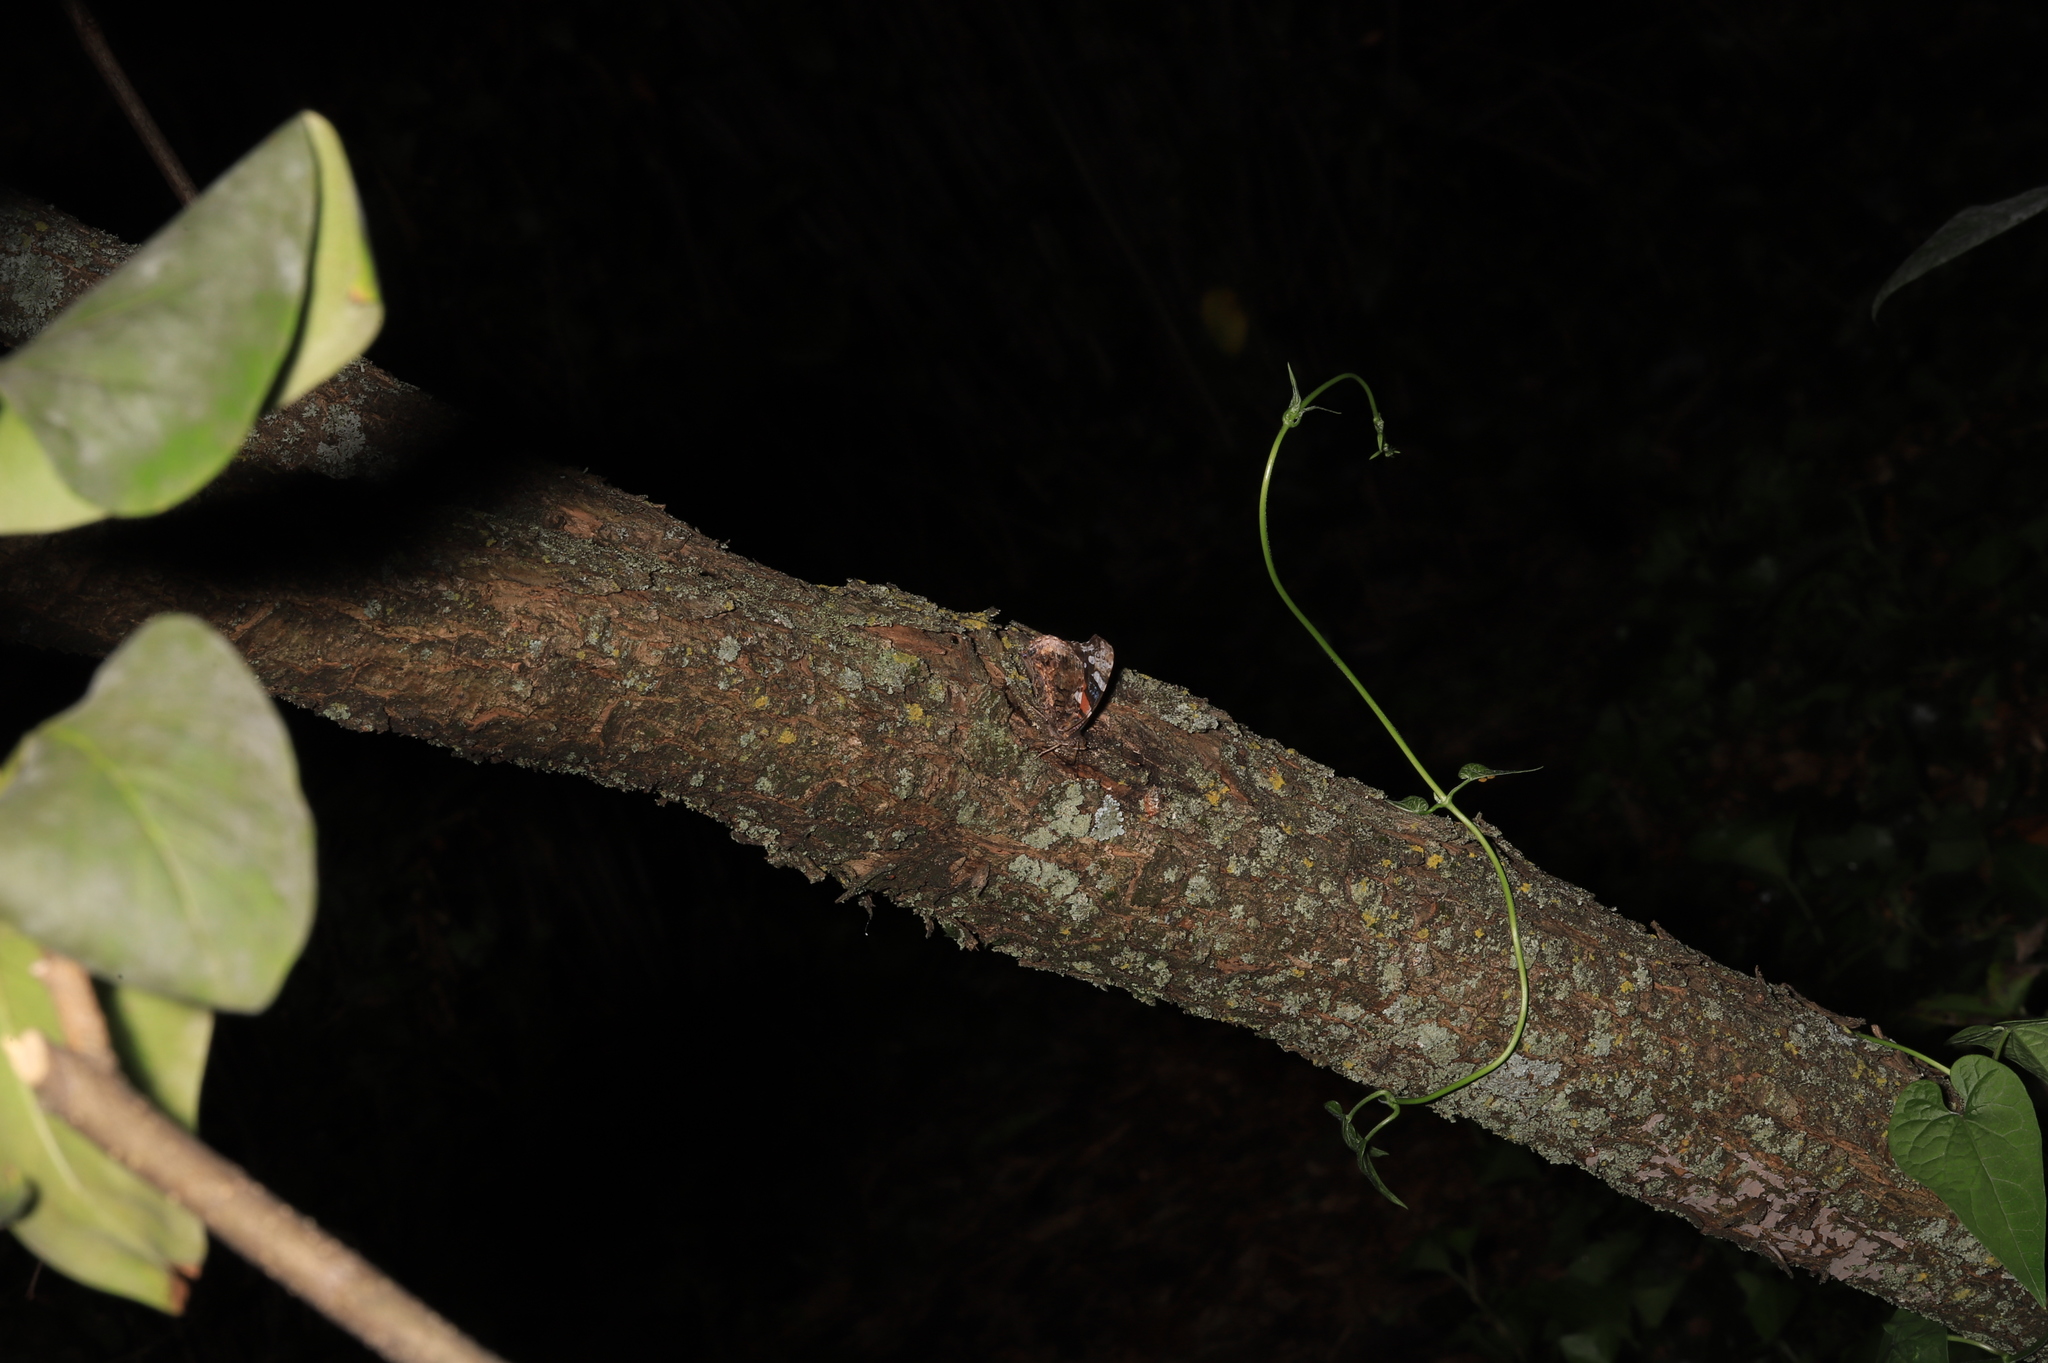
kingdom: Animalia
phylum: Arthropoda
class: Insecta
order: Lepidoptera
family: Nymphalidae
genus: Vanessa
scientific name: Vanessa atalanta
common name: Red admiral
